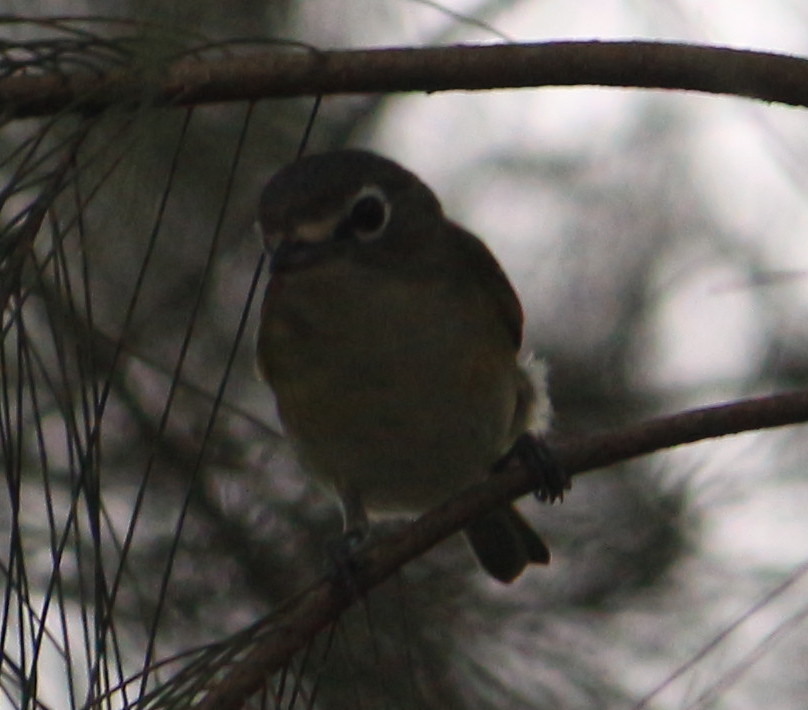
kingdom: Animalia
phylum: Chordata
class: Aves
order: Passeriformes
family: Vireonidae
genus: Vireo
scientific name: Vireo solitarius
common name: Blue-headed vireo
